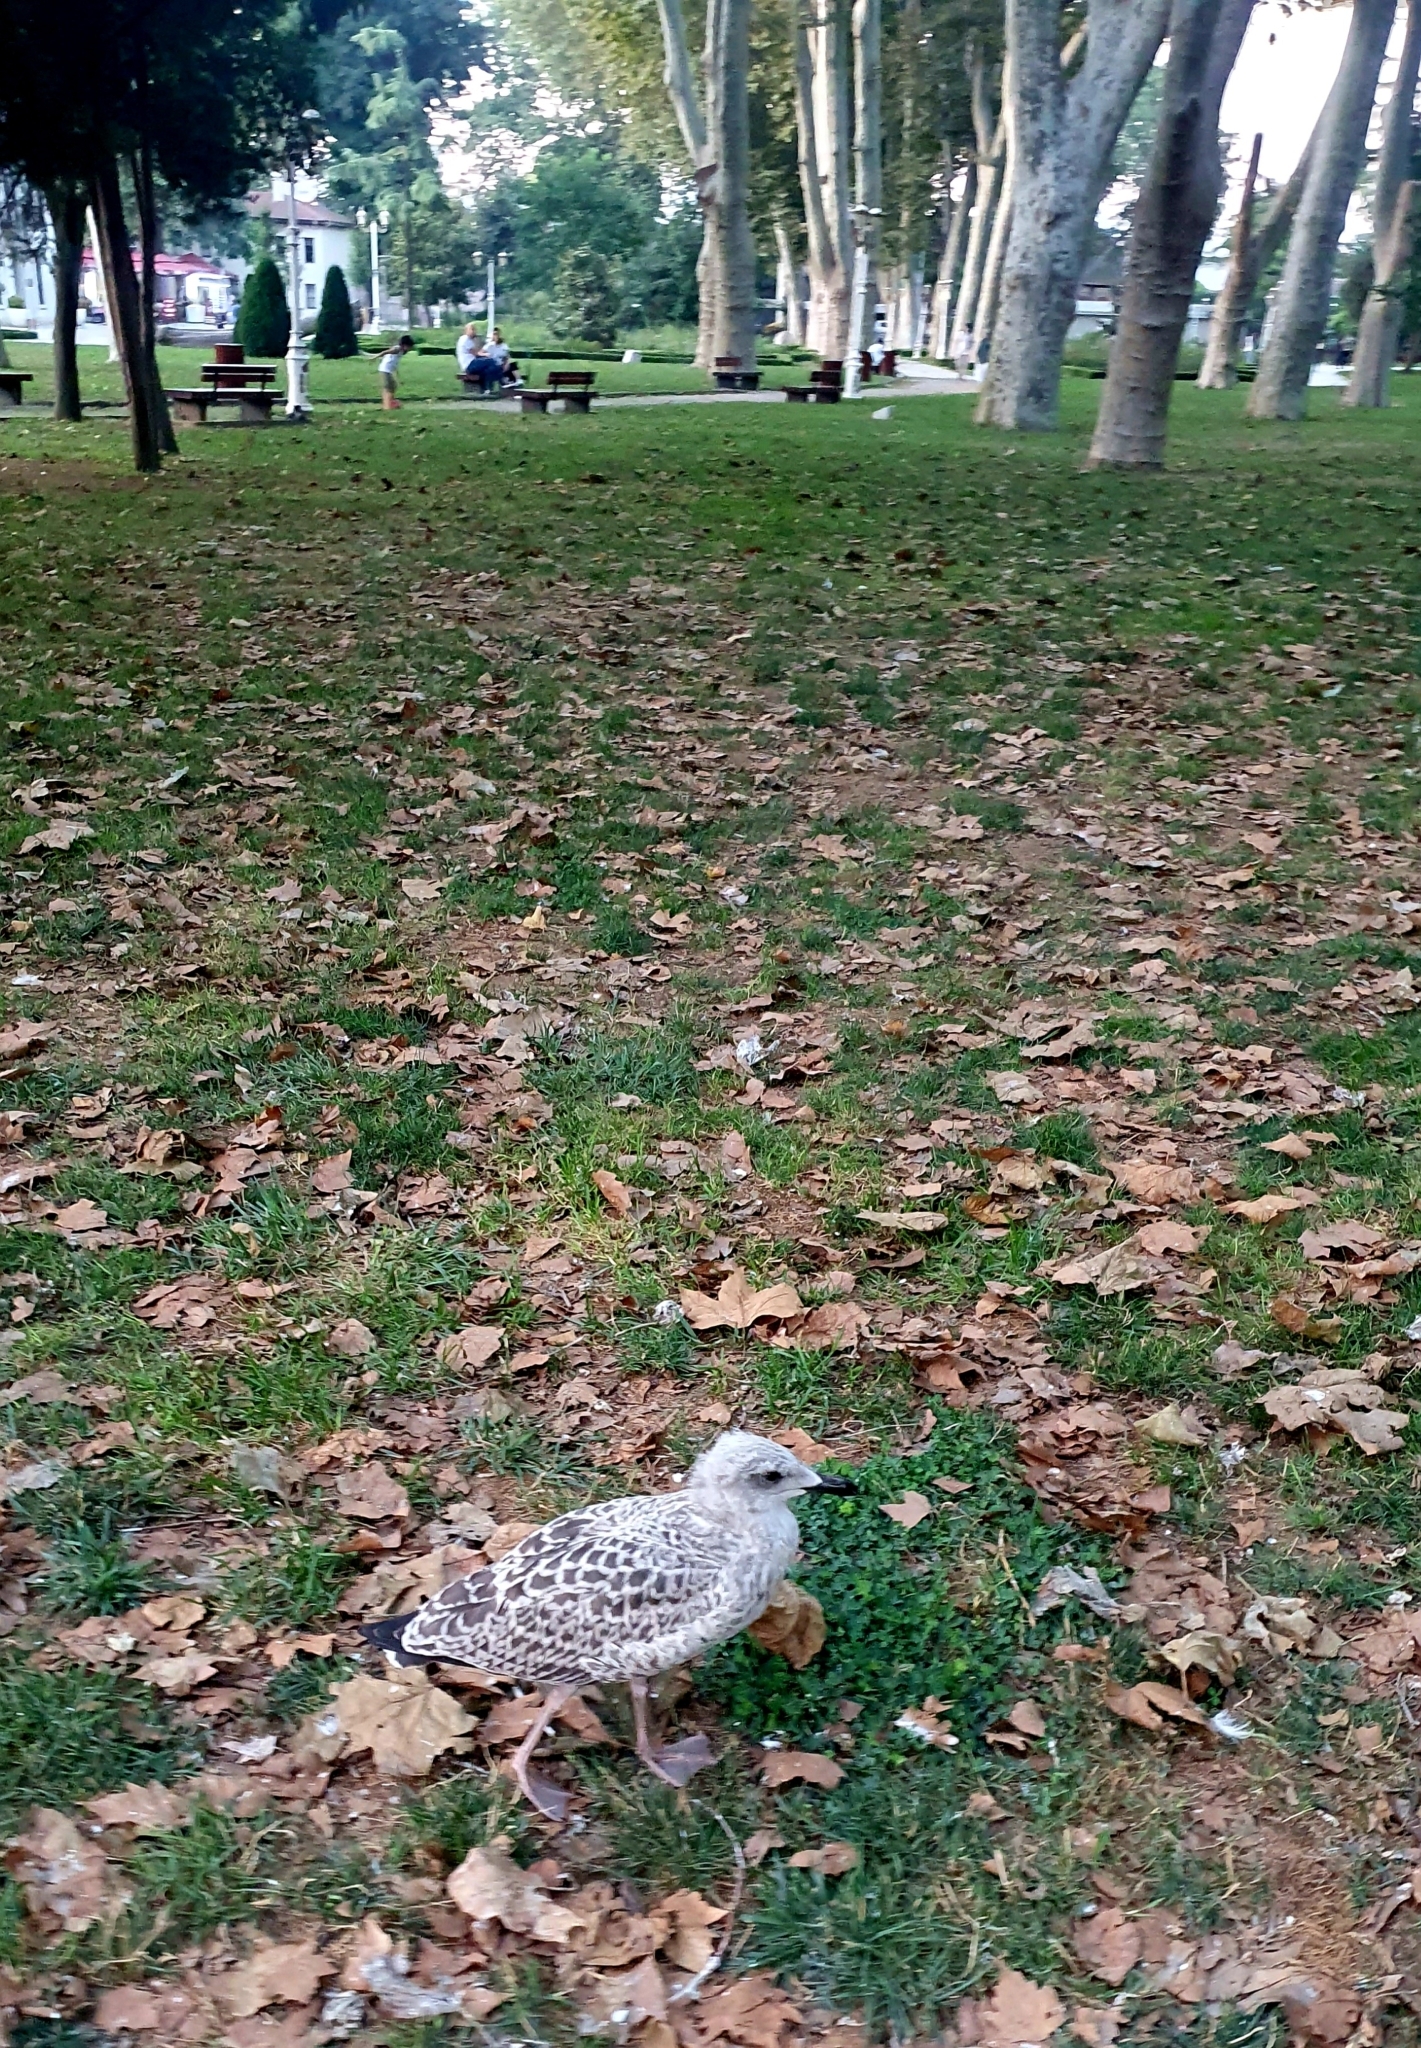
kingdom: Animalia
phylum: Chordata
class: Aves
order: Charadriiformes
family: Laridae
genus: Larus
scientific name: Larus michahellis
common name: Yellow-legged gull
